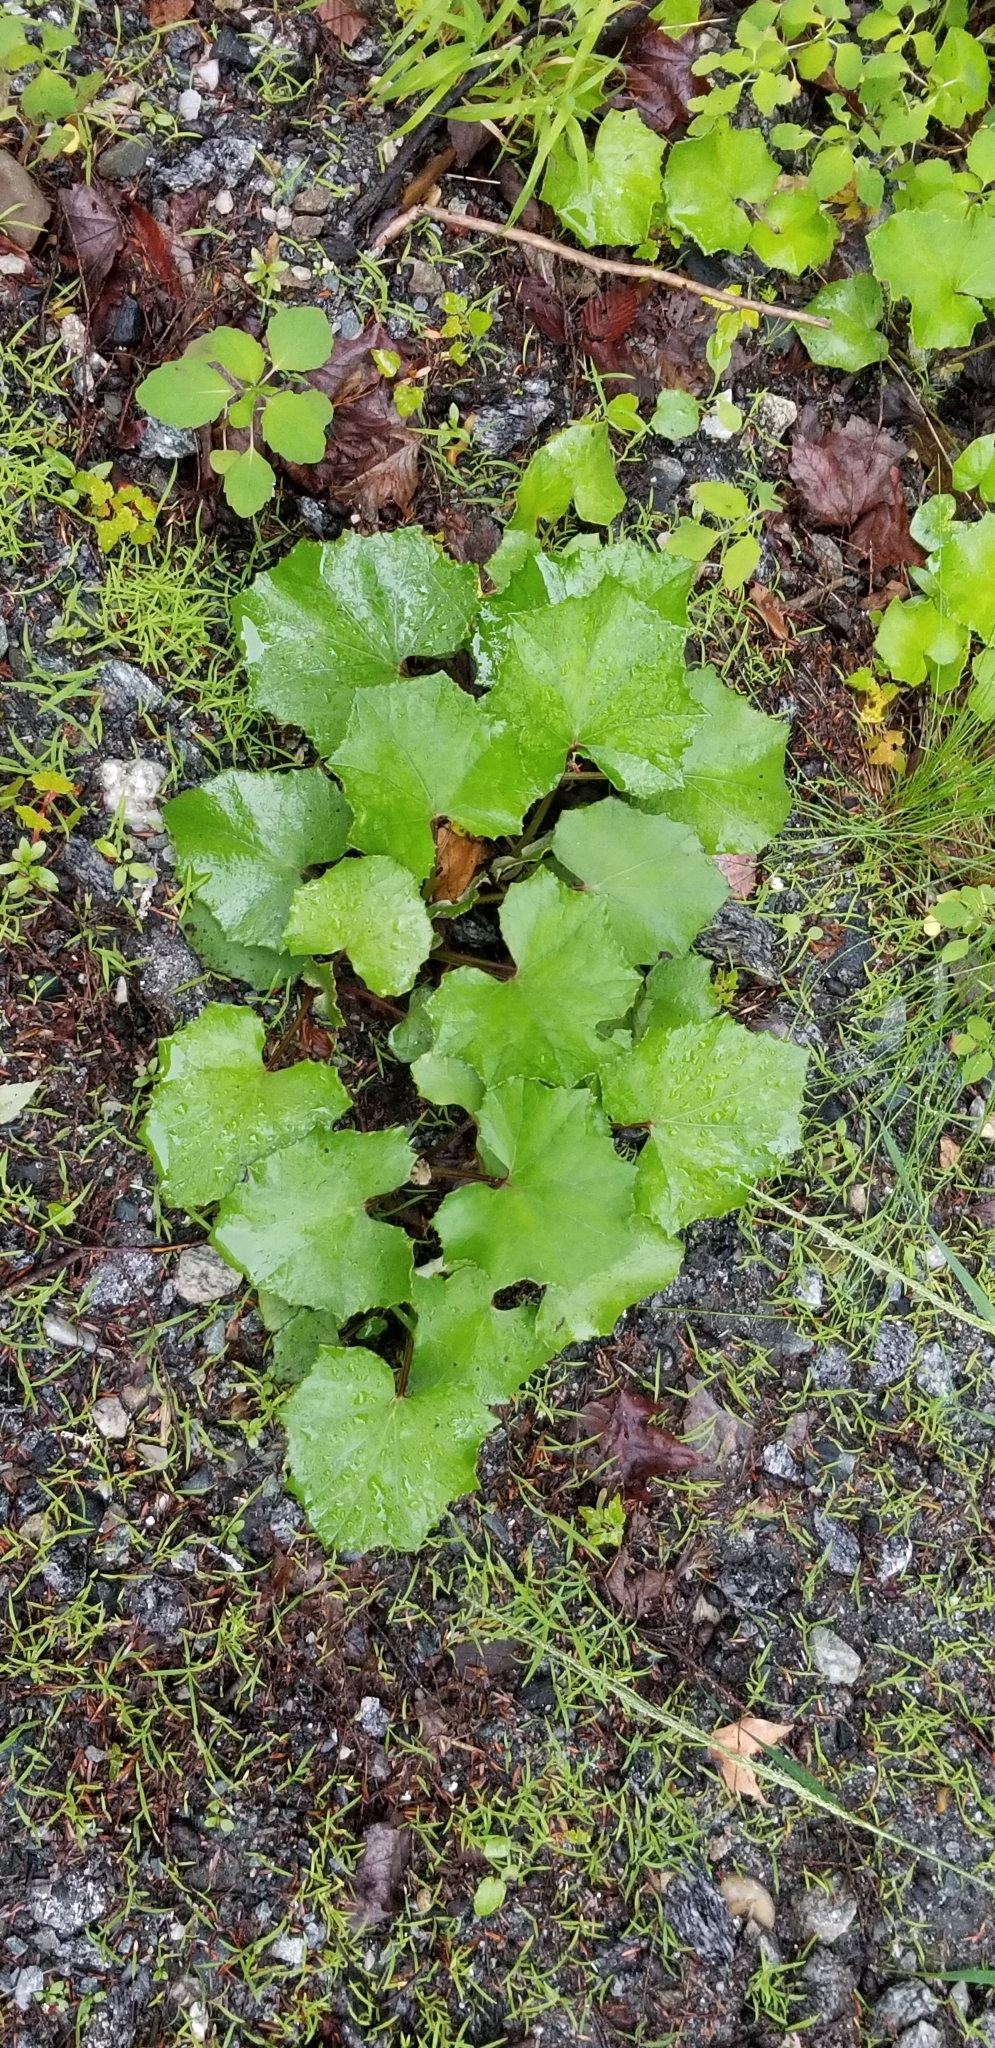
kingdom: Plantae
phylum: Tracheophyta
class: Magnoliopsida
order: Asterales
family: Asteraceae
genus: Tussilago
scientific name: Tussilago farfara
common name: Coltsfoot
